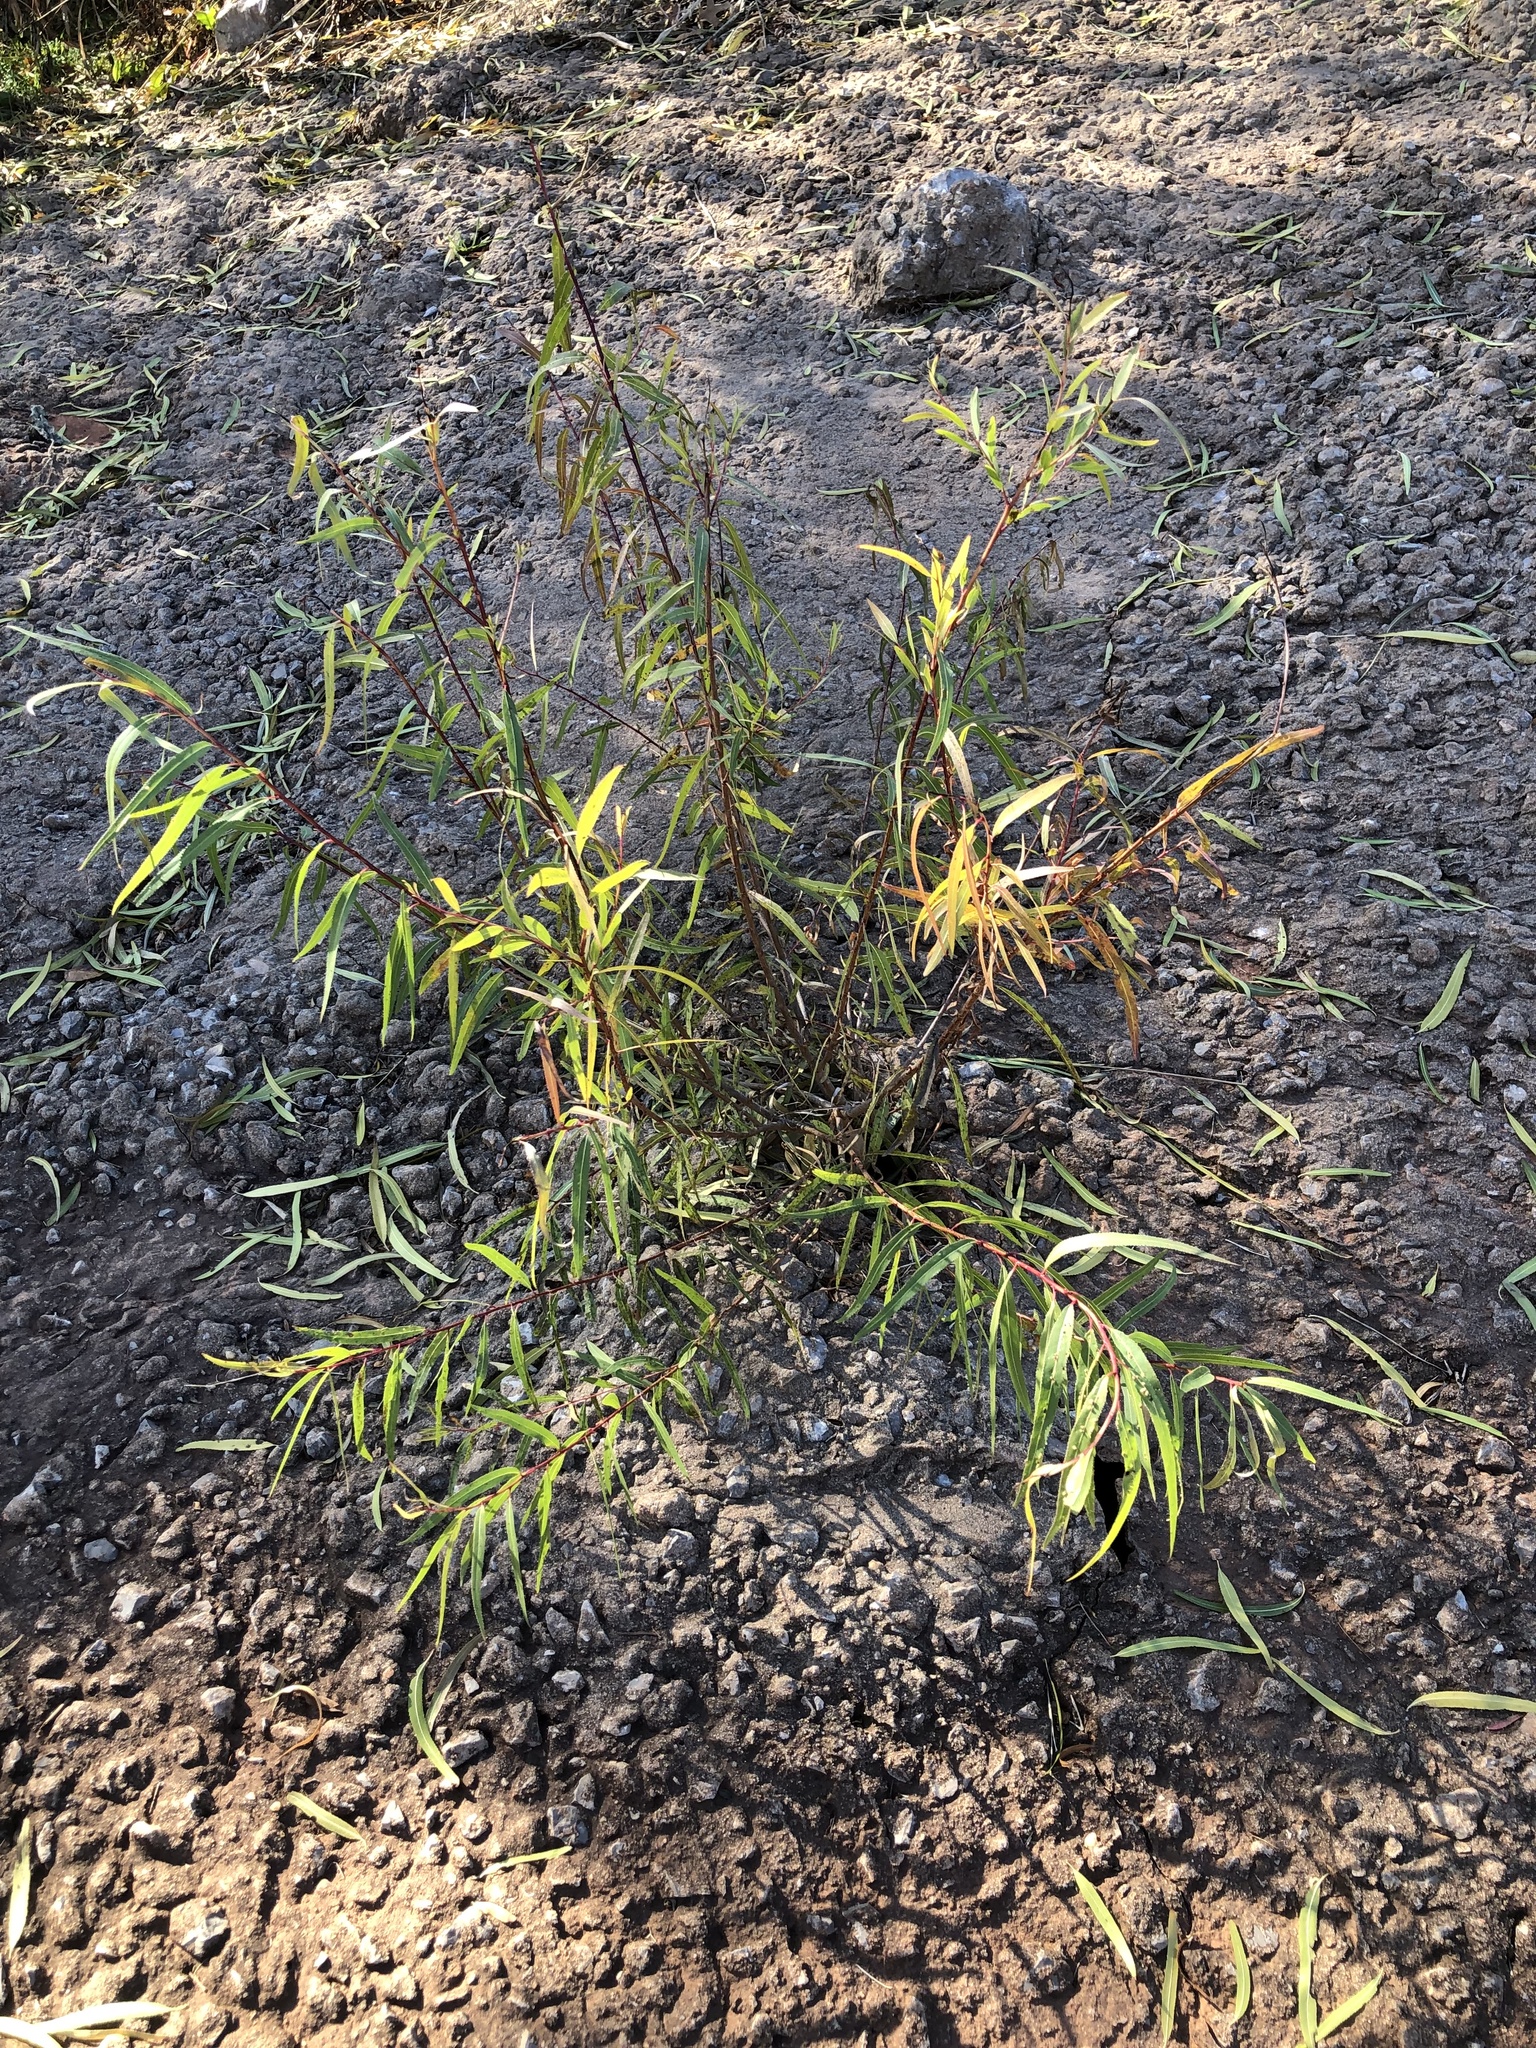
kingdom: Plantae
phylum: Tracheophyta
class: Magnoliopsida
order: Malpighiales
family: Salicaceae
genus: Salix
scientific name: Salix nigra
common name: Black willow
